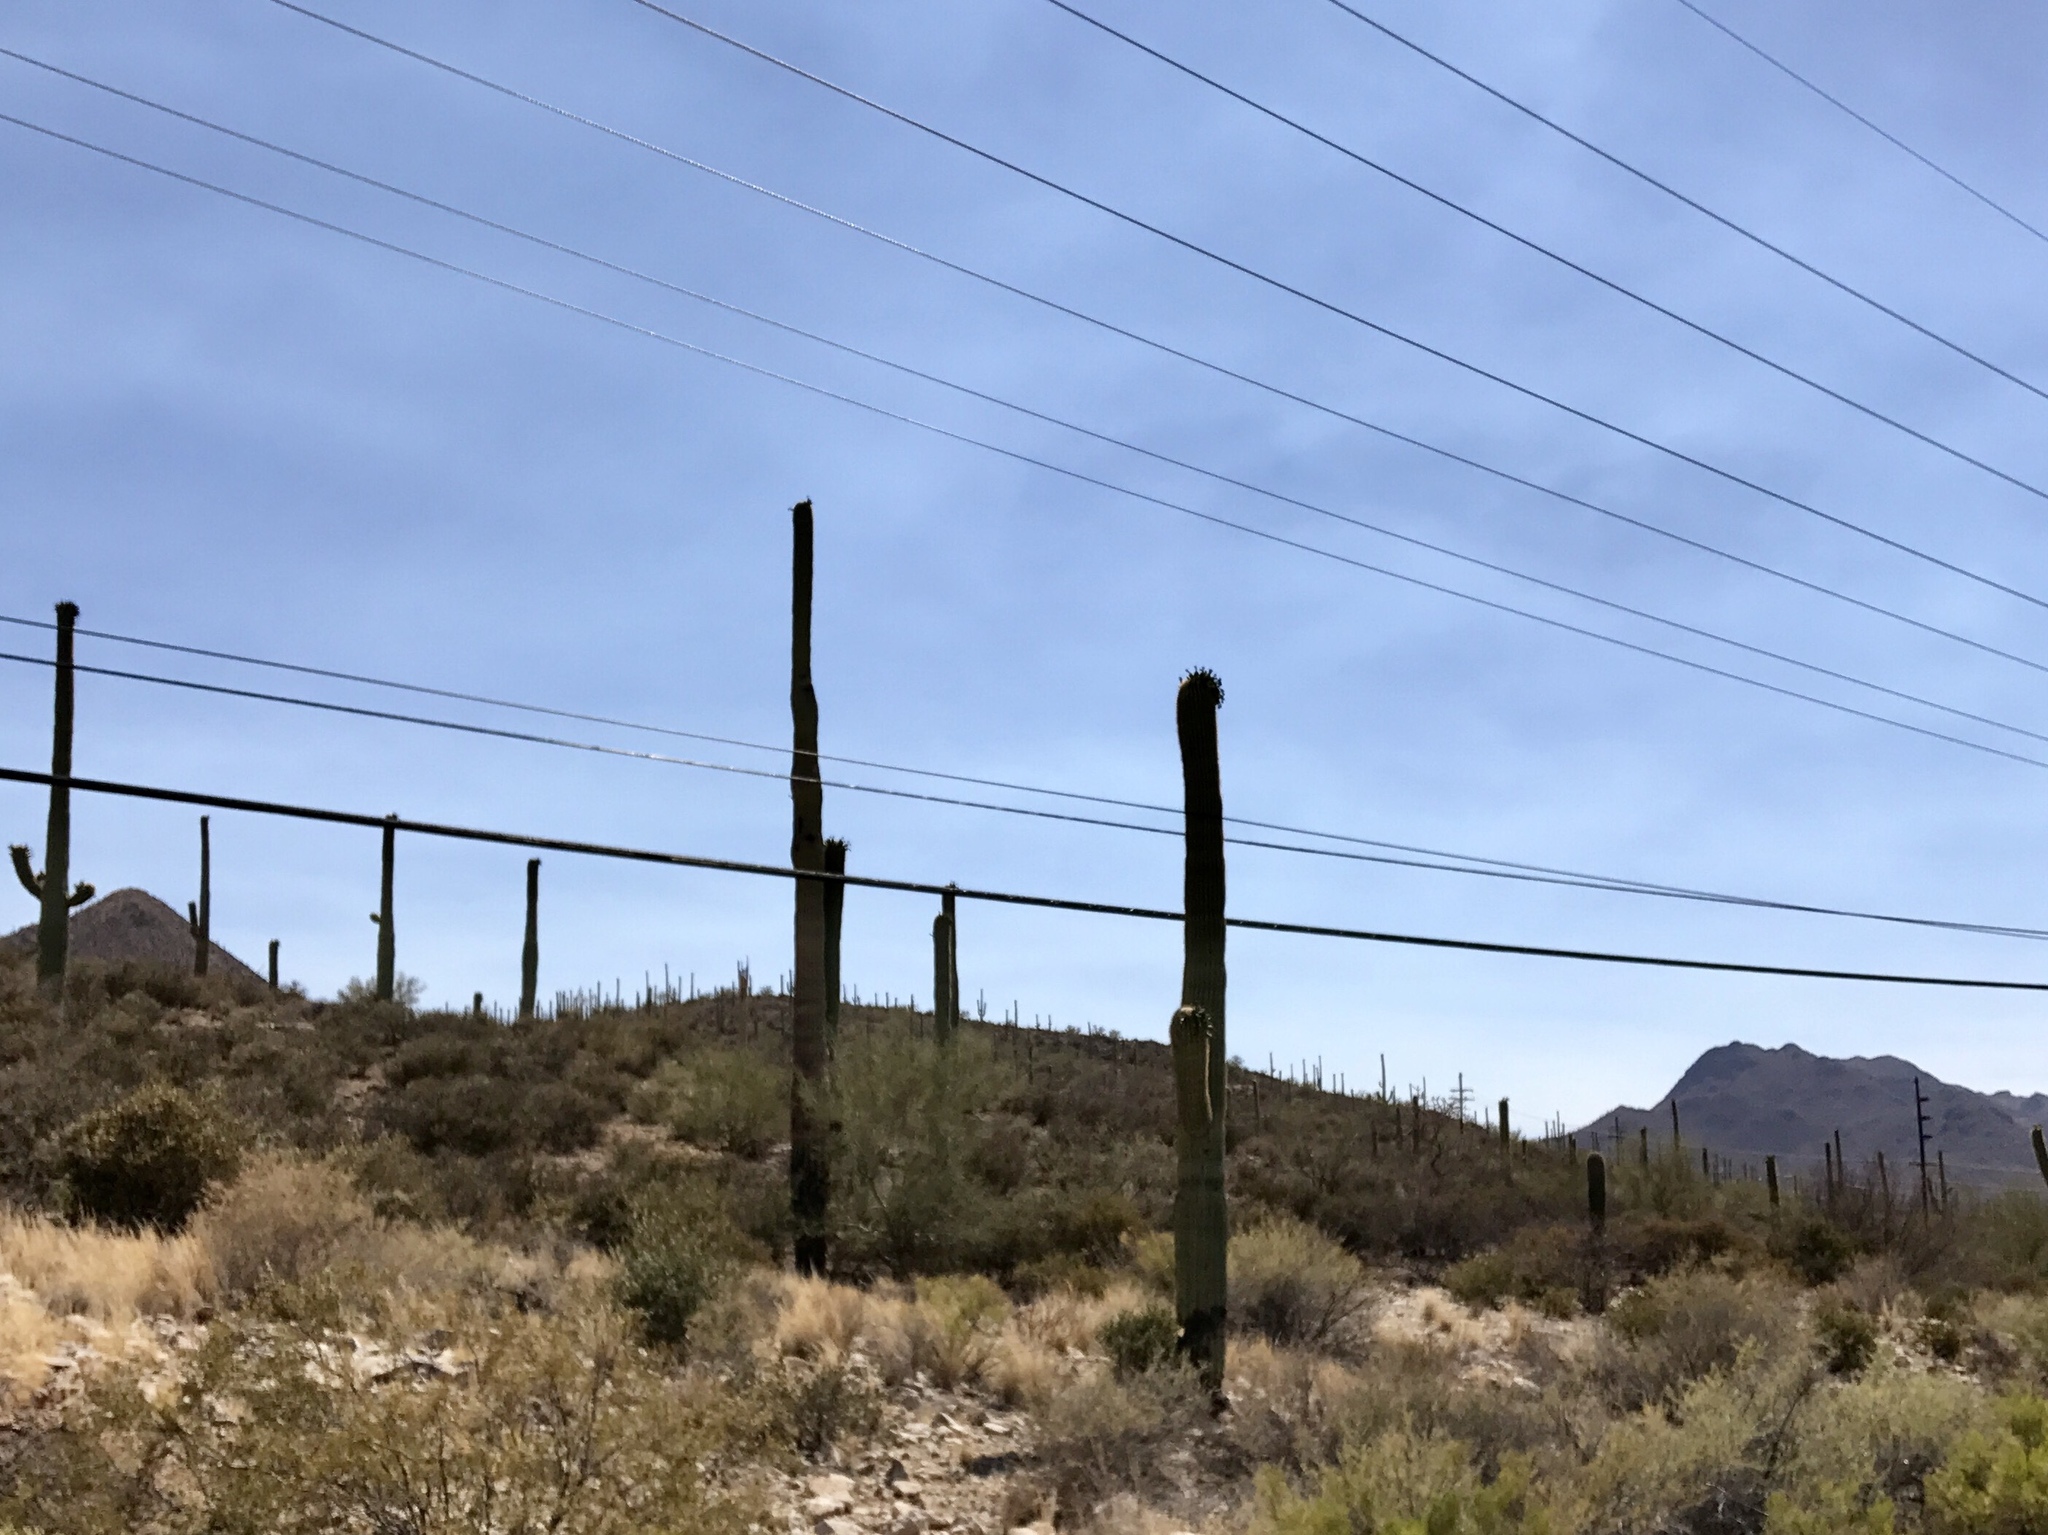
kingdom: Plantae
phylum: Tracheophyta
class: Magnoliopsida
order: Caryophyllales
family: Cactaceae
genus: Carnegiea
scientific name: Carnegiea gigantea
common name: Saguaro
